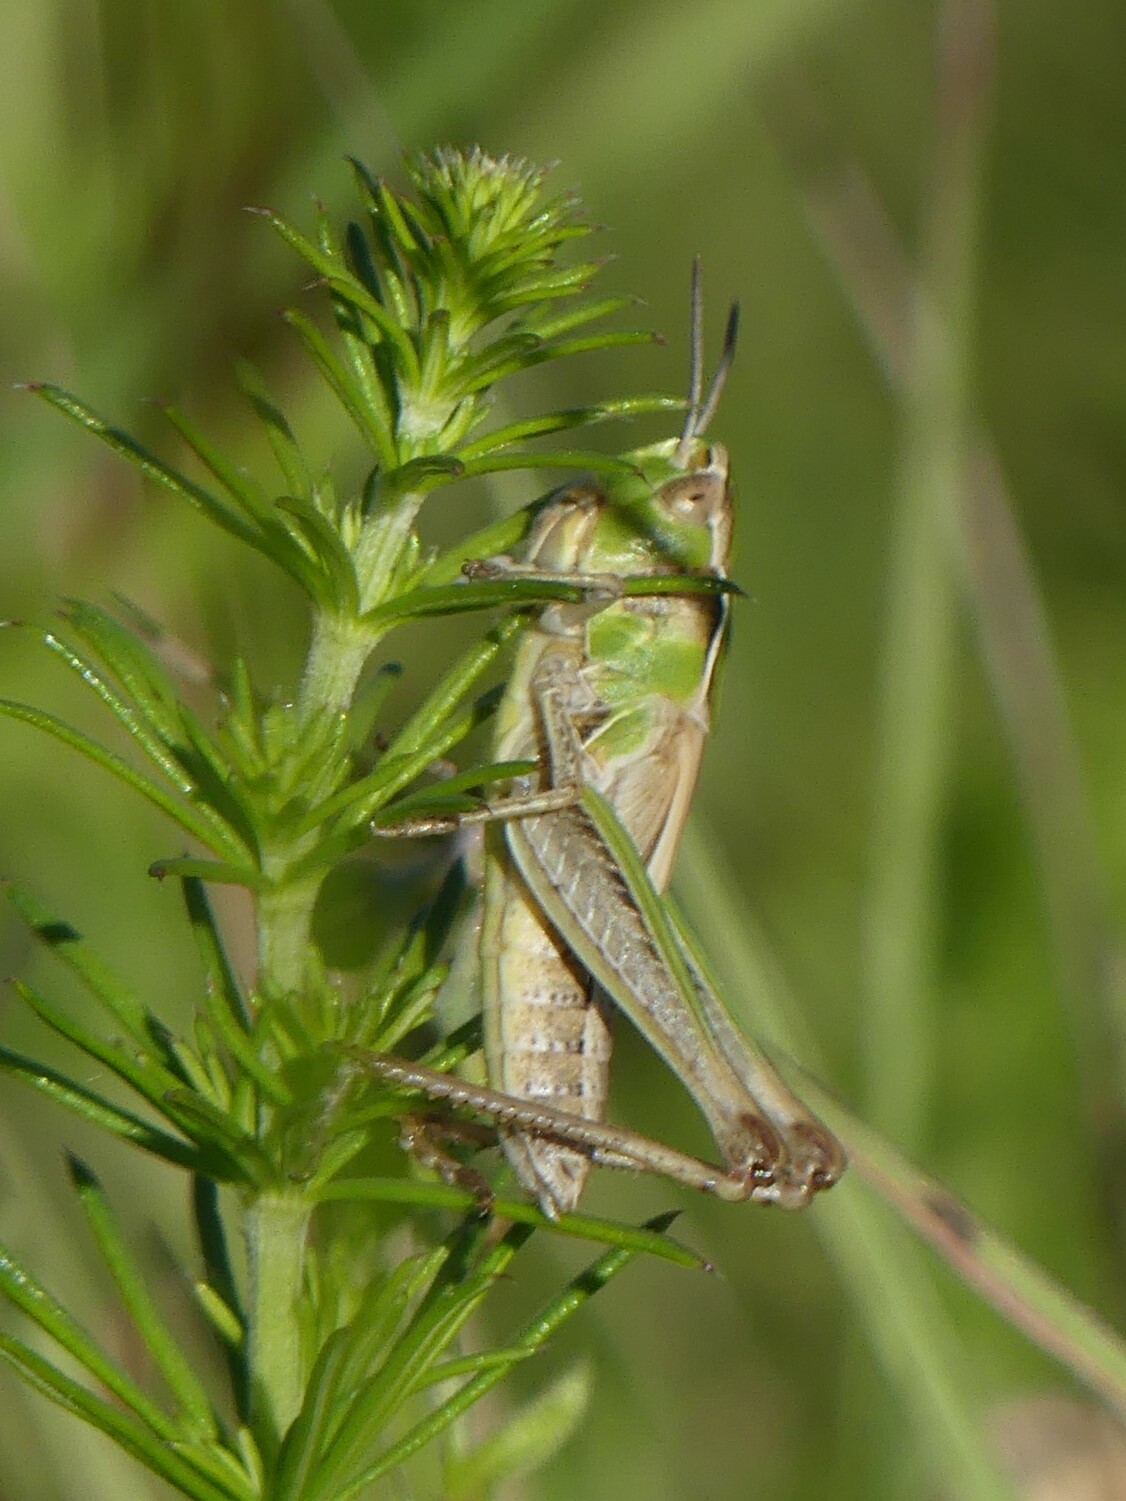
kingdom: Animalia
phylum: Arthropoda
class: Insecta
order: Orthoptera
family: Acrididae
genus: Stenobothrus
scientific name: Stenobothrus lineatus
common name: Stripe-winged grasshopper
